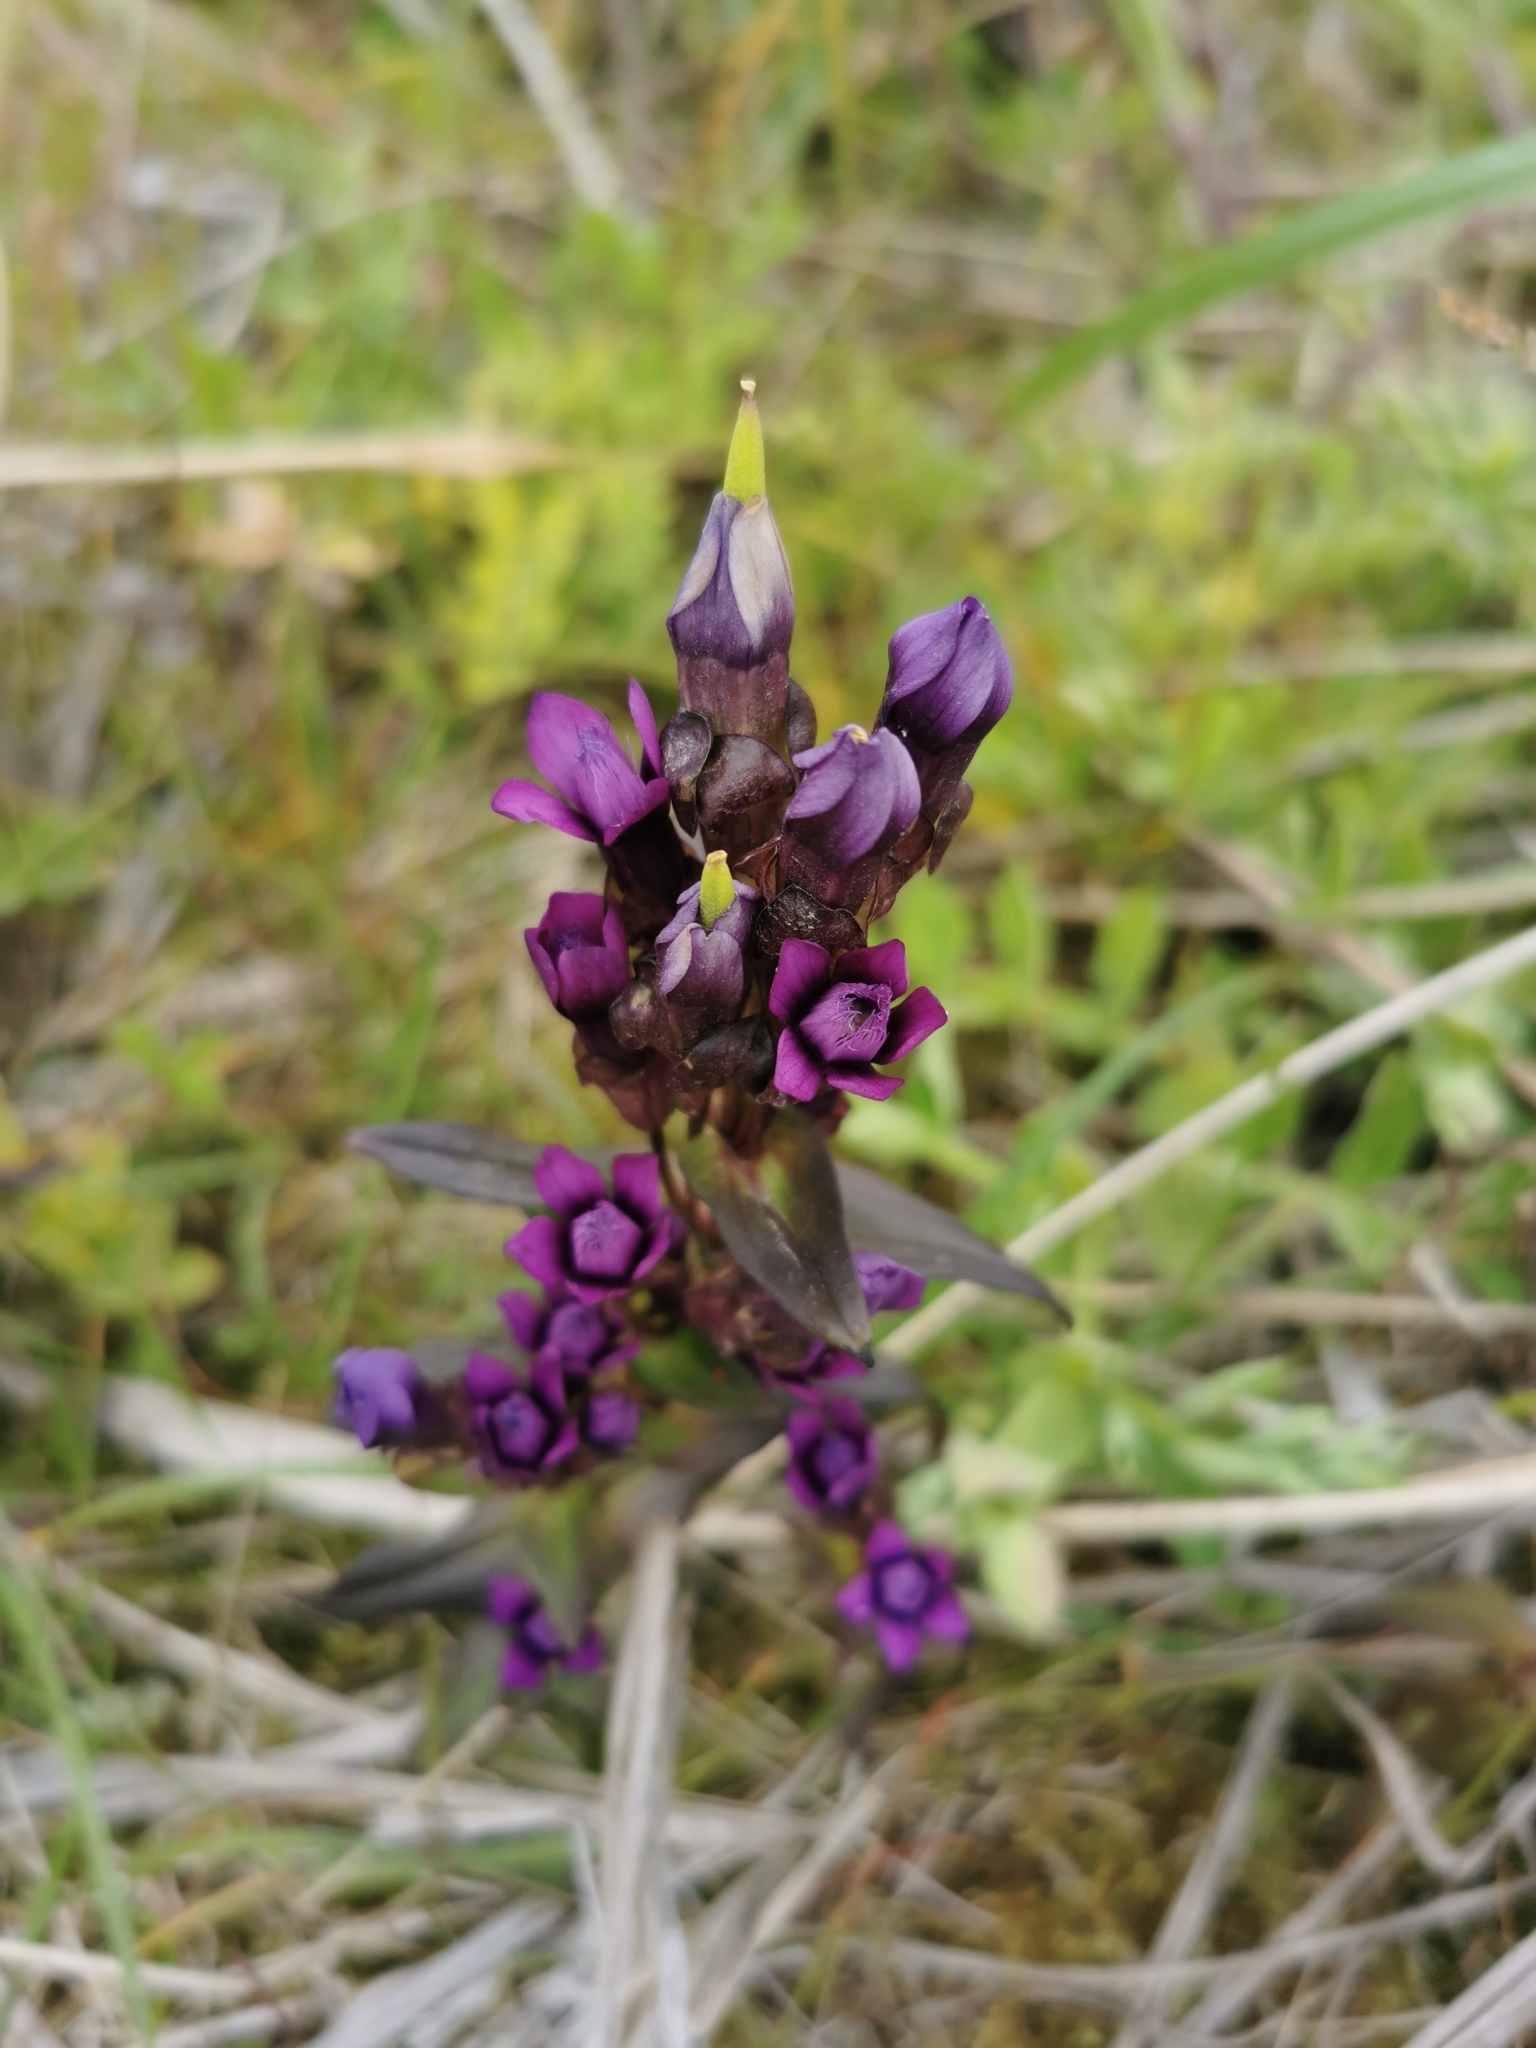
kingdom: Plantae
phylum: Tracheophyta
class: Magnoliopsida
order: Gentianales
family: Gentianaceae
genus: Gentianella
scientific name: Gentianella auriculata
